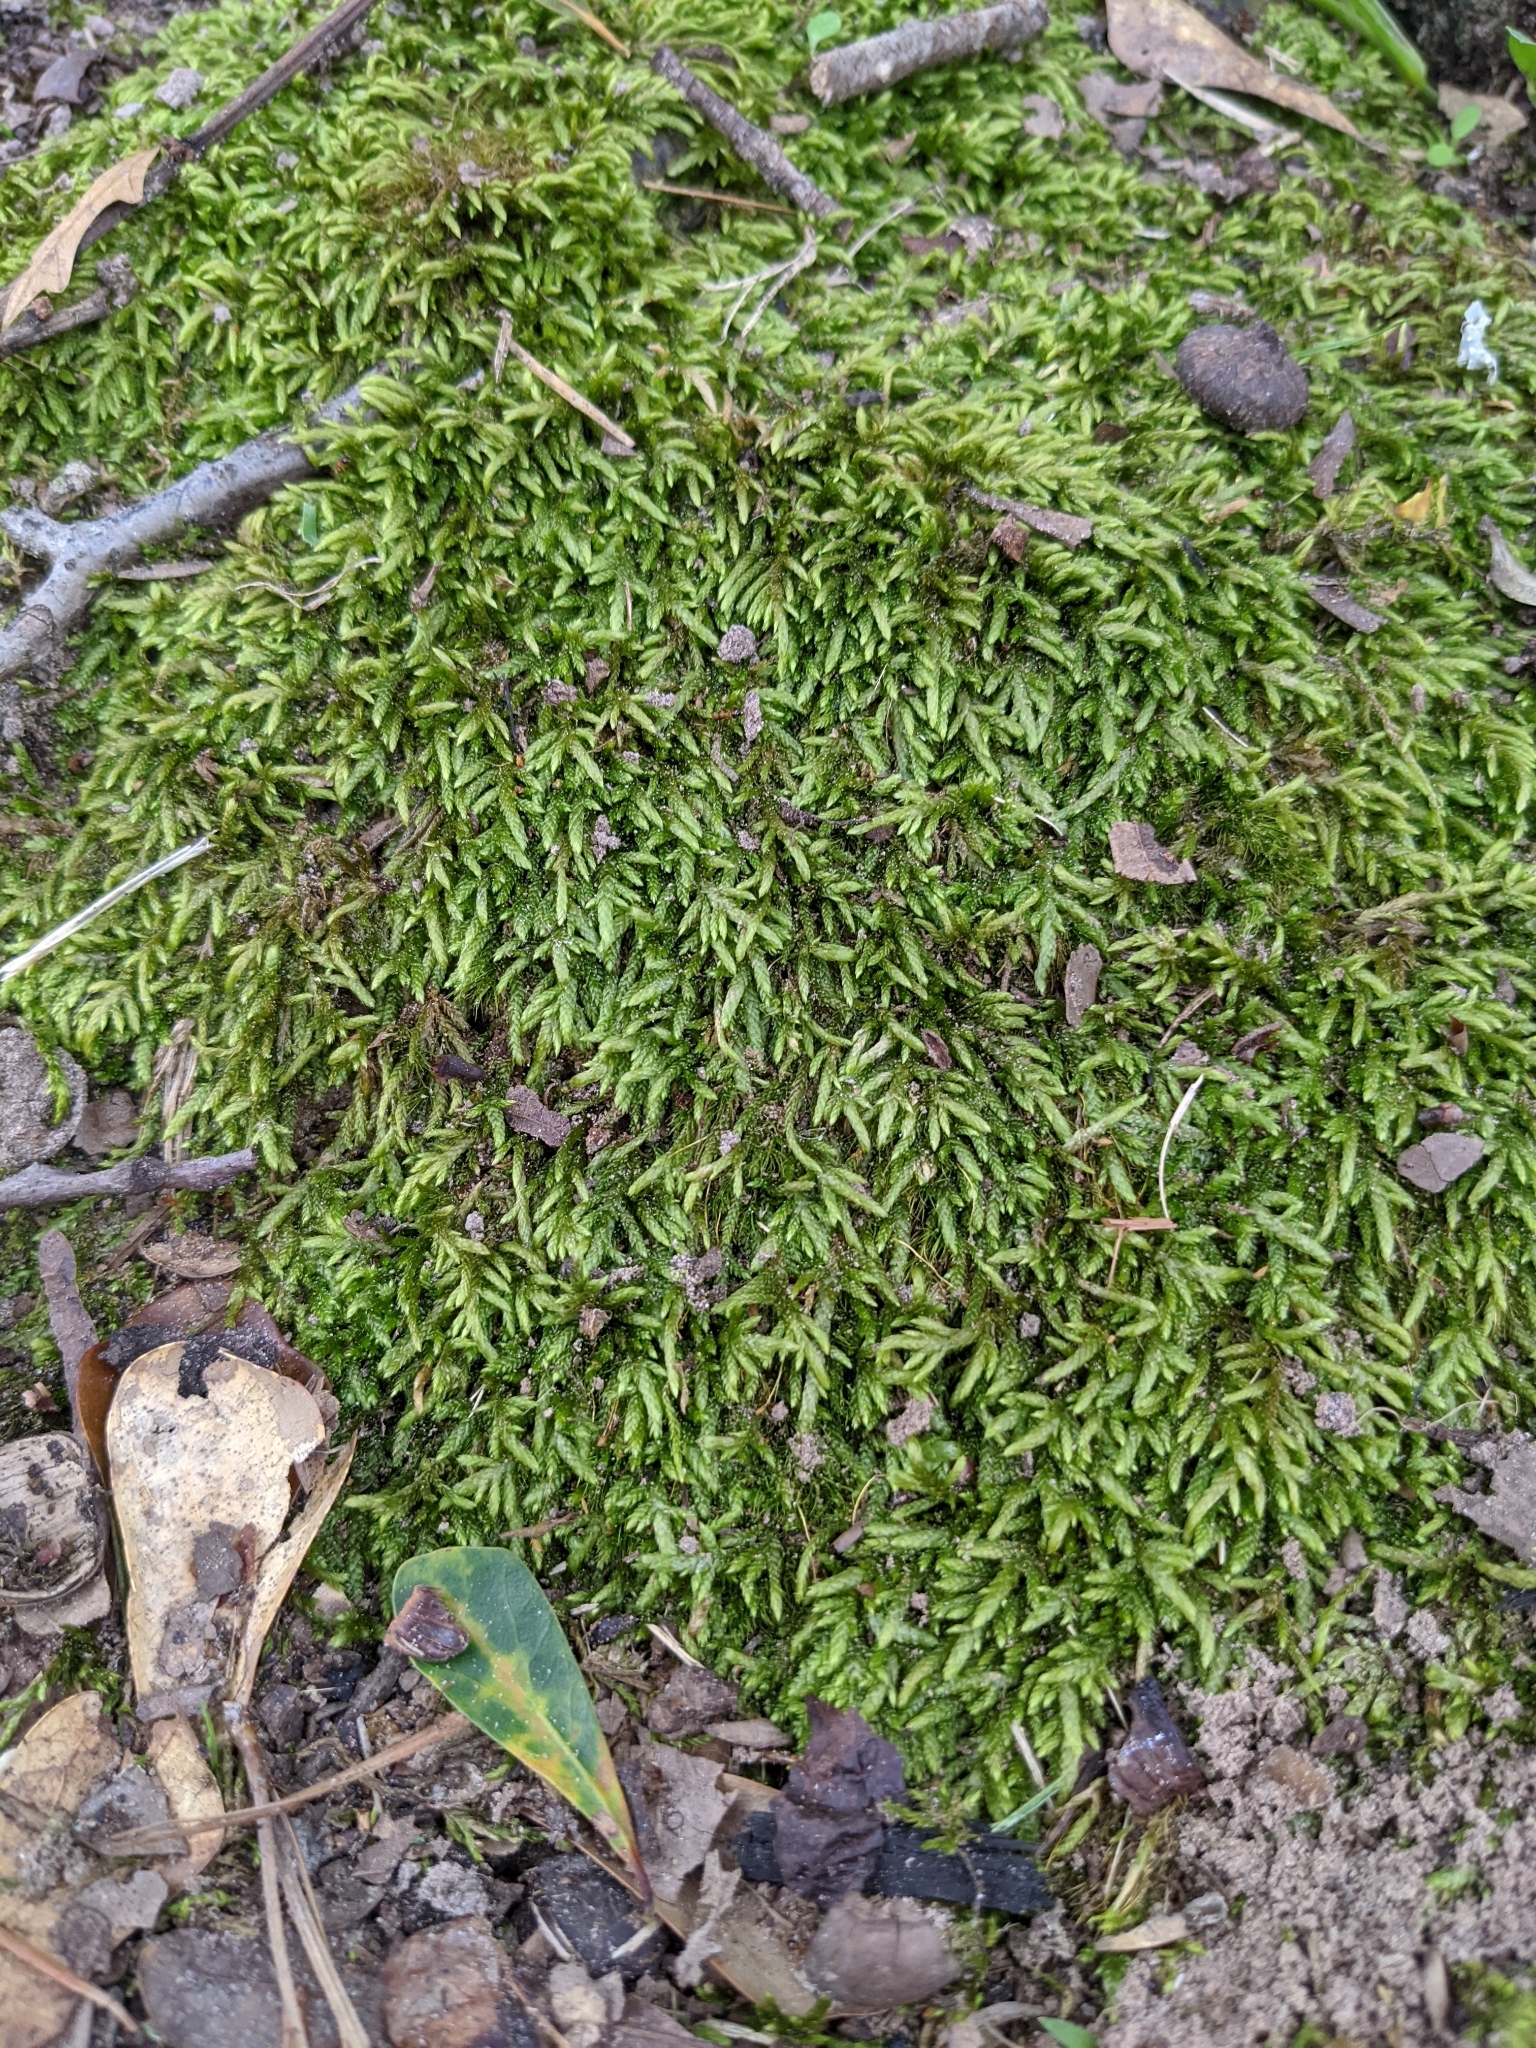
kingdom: Plantae
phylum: Bryophyta
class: Bryopsida
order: Hypnales
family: Entodontaceae
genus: Entodon
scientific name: Entodon seductrix
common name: Round-stemmed entodon moss
